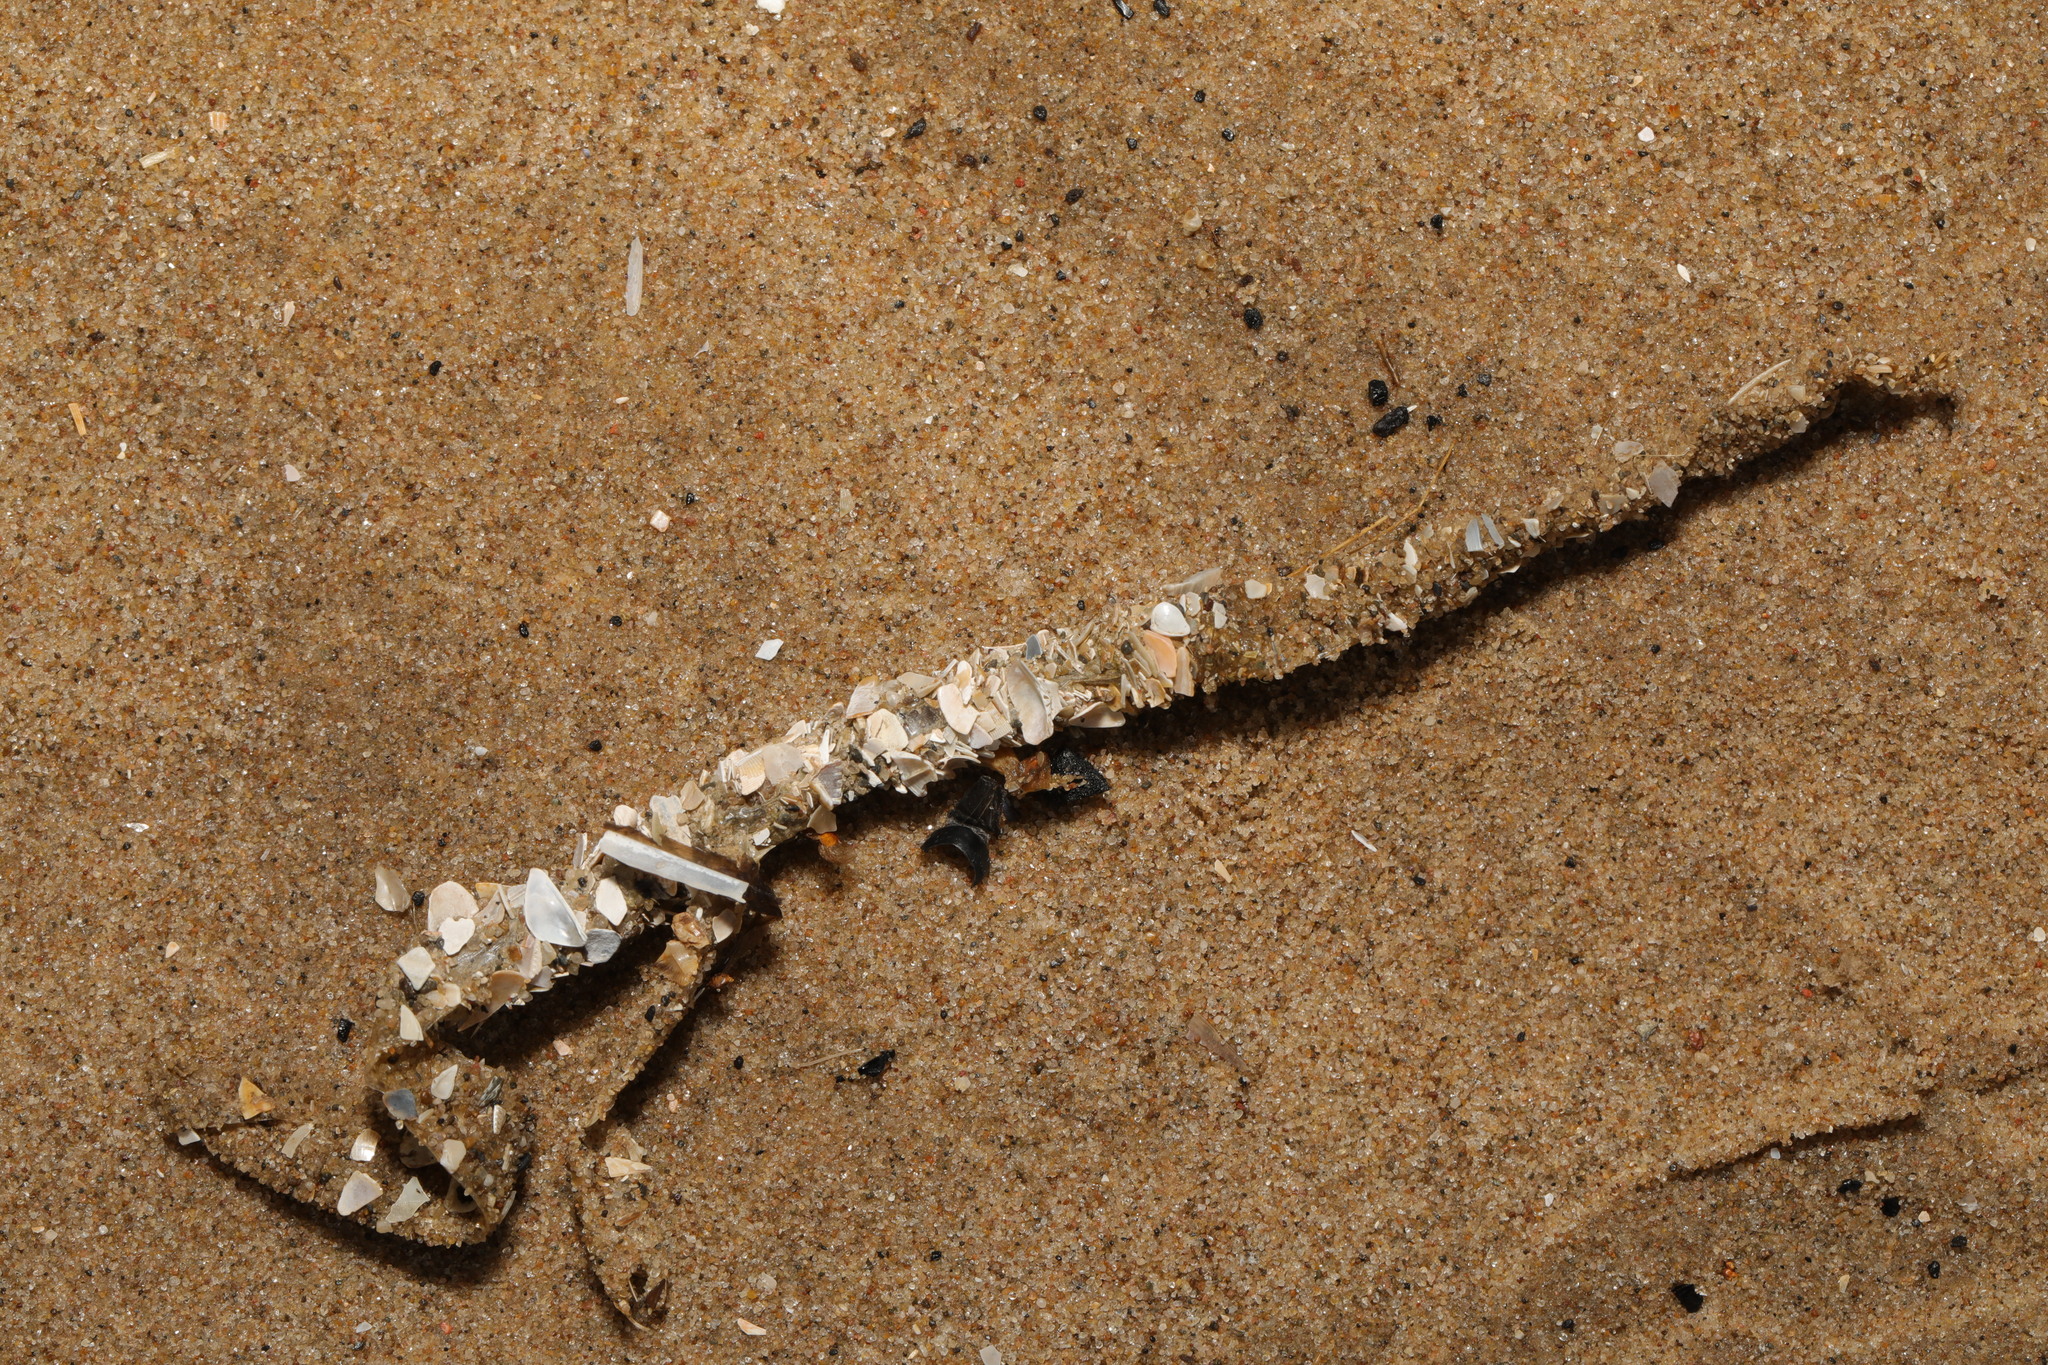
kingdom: Animalia
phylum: Annelida
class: Polychaeta
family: Terebellidae
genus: Lanice
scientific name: Lanice conchilega
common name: Sand mason
